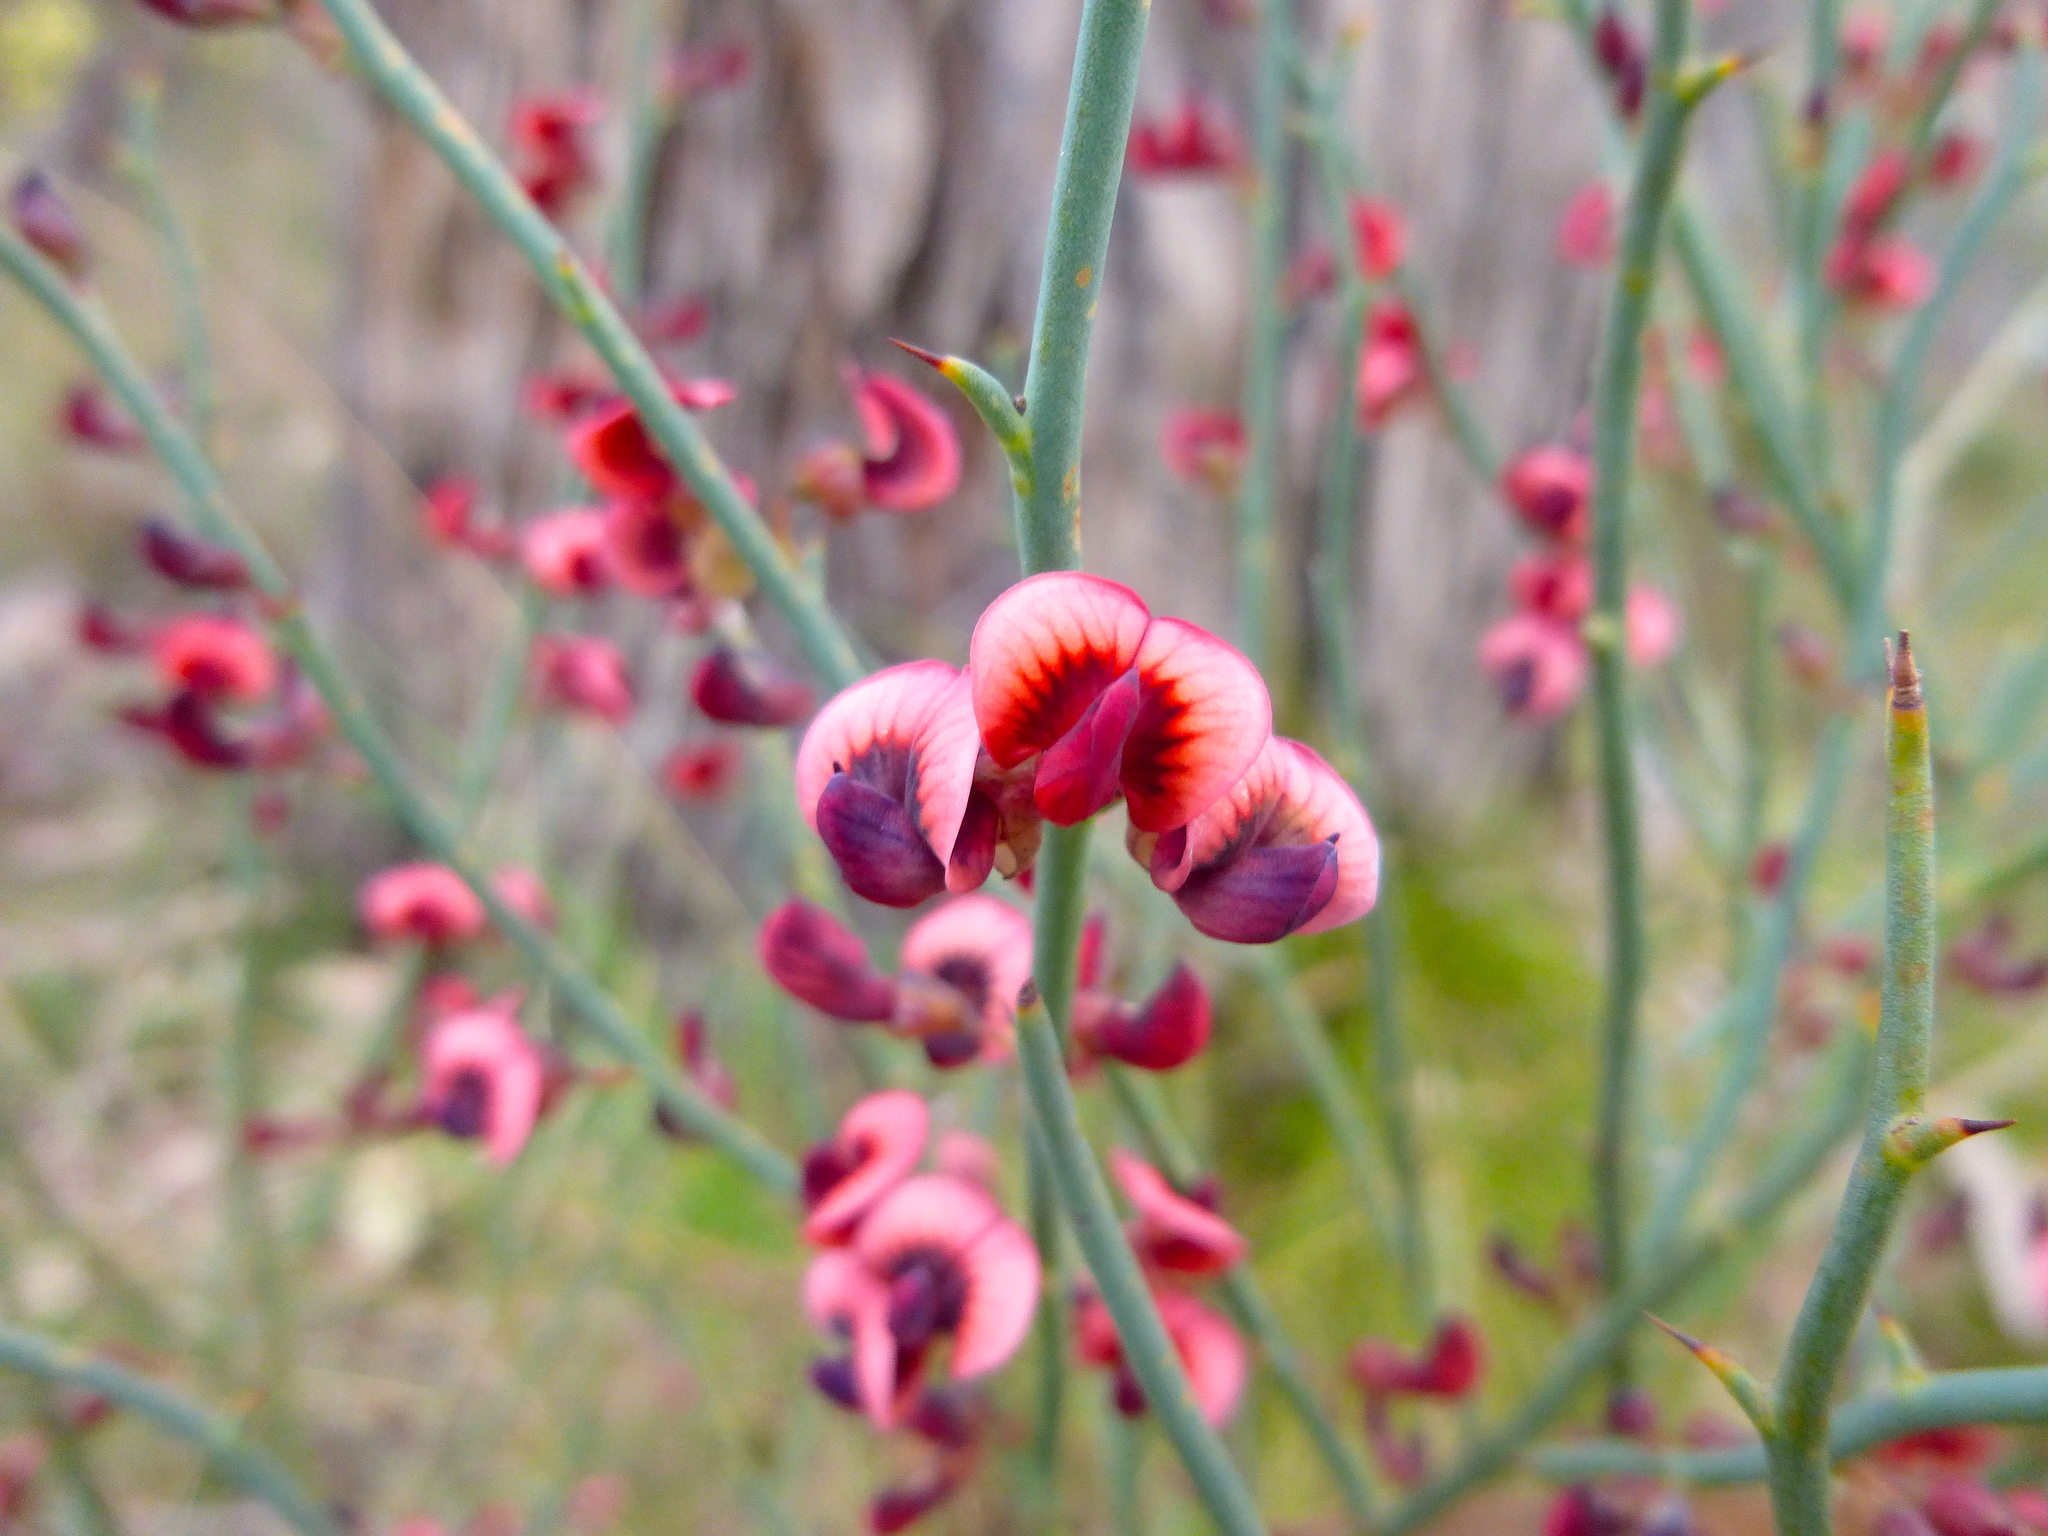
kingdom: Plantae
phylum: Tracheophyta
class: Magnoliopsida
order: Fabales
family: Fabaceae
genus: Daviesia
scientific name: Daviesia brevifolia
